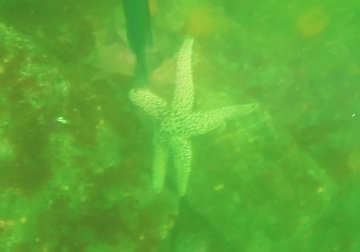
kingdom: Animalia
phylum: Echinodermata
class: Asteroidea
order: Forcipulatida
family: Asteriidae
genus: Pisaster
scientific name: Pisaster giganteus
